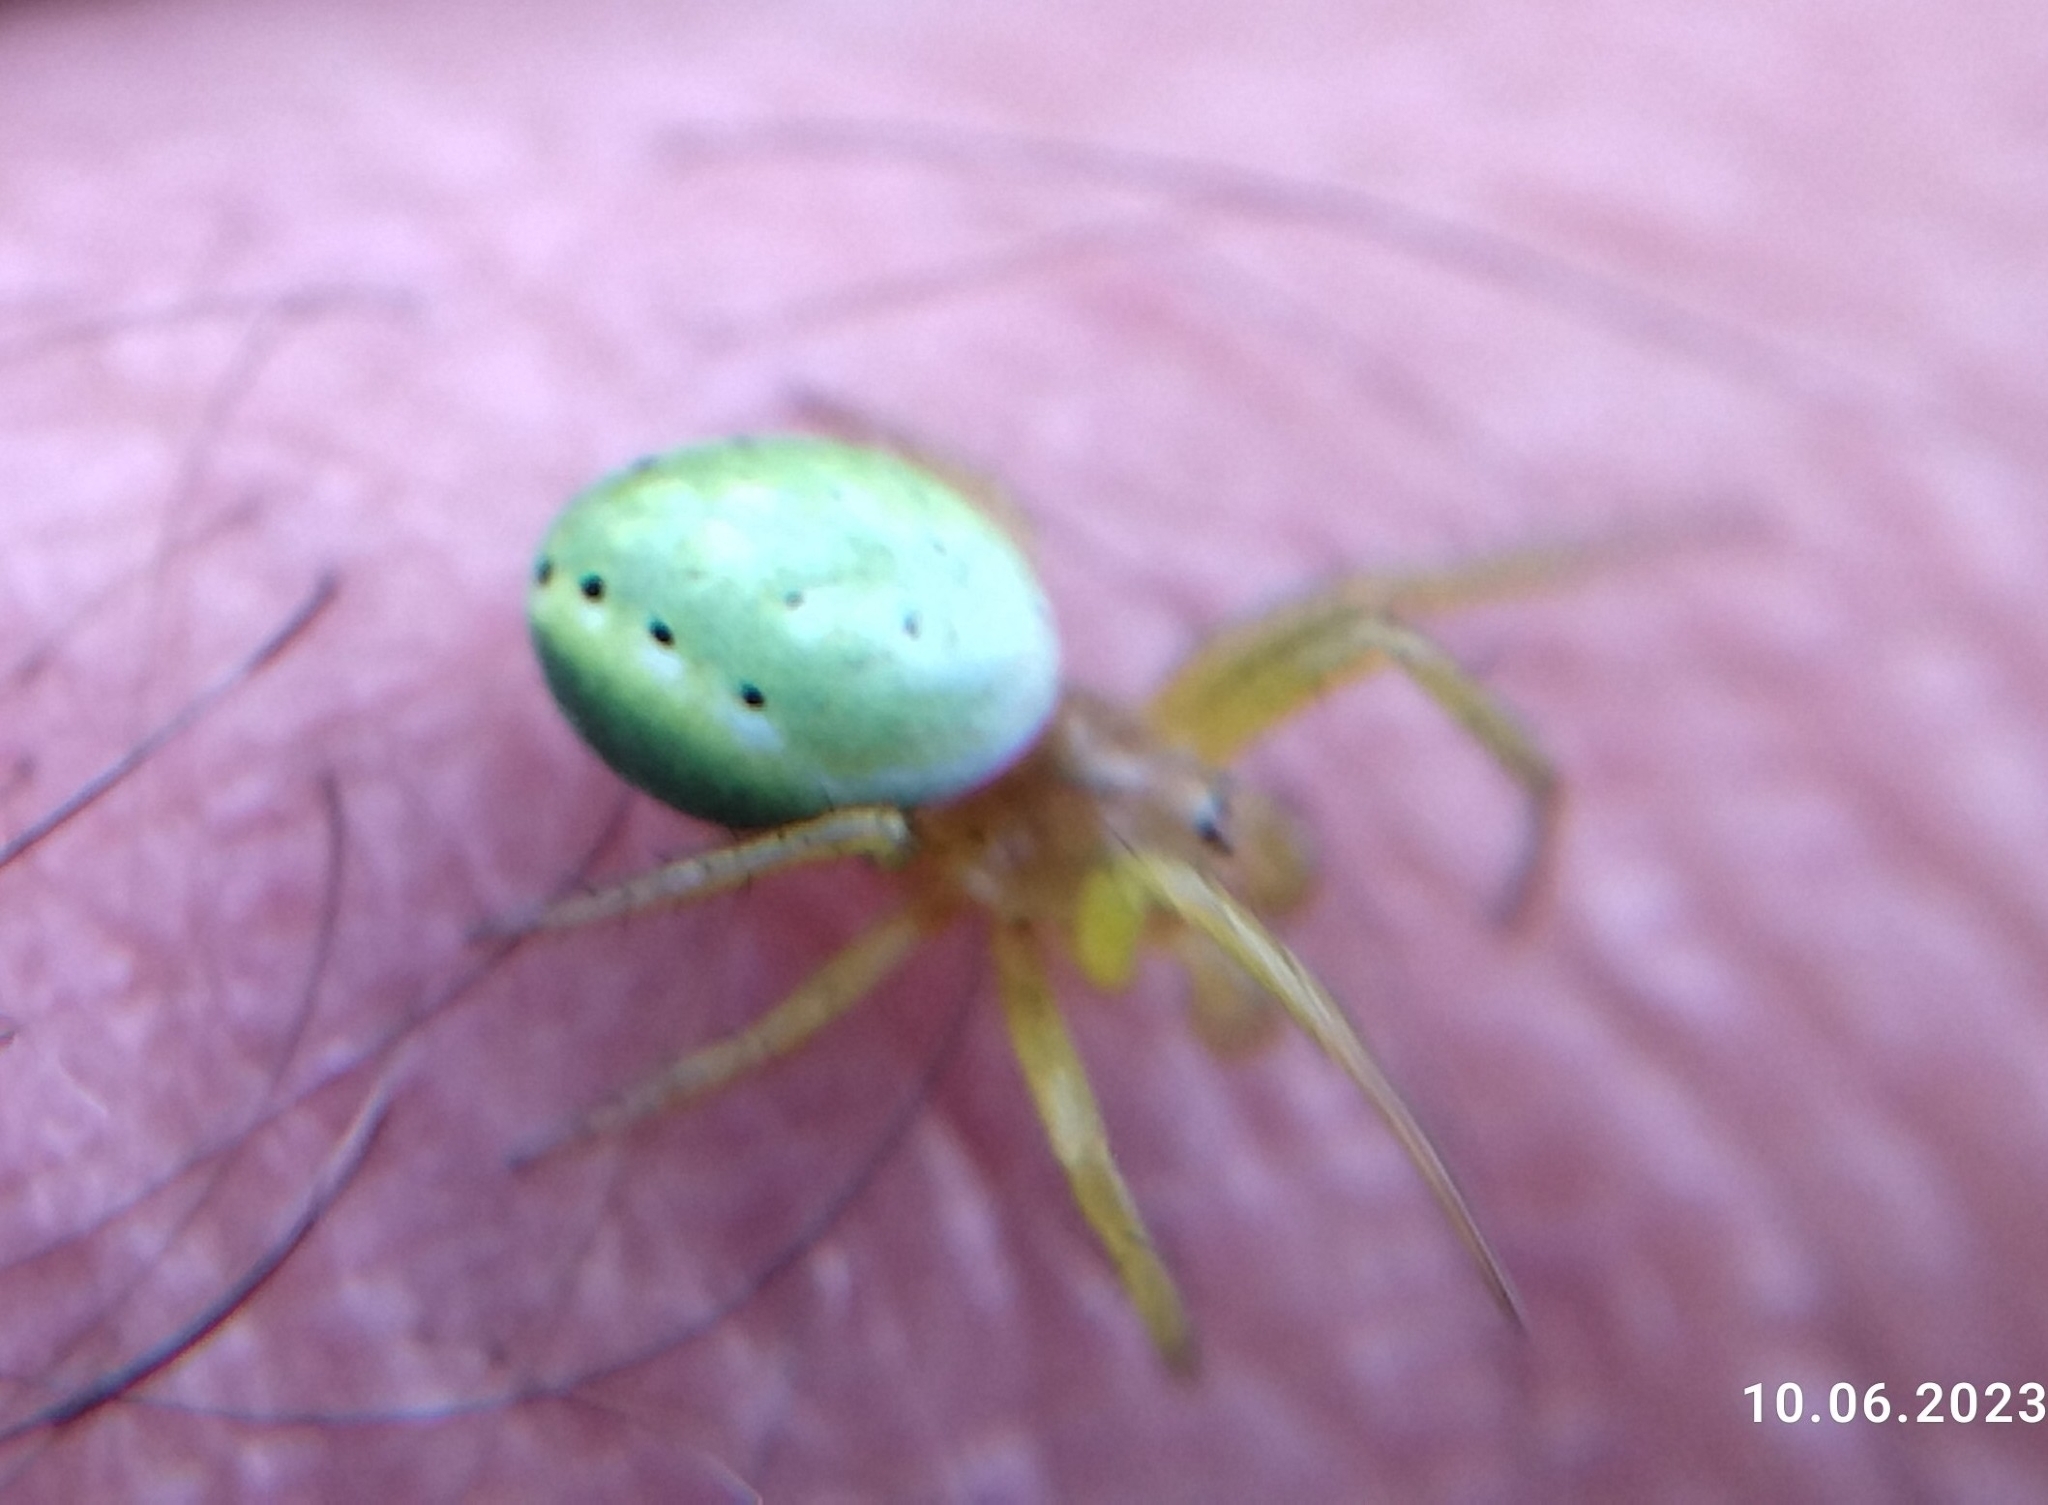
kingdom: Animalia
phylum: Arthropoda
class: Arachnida
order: Araneae
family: Araneidae
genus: Araniella
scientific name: Araniella
